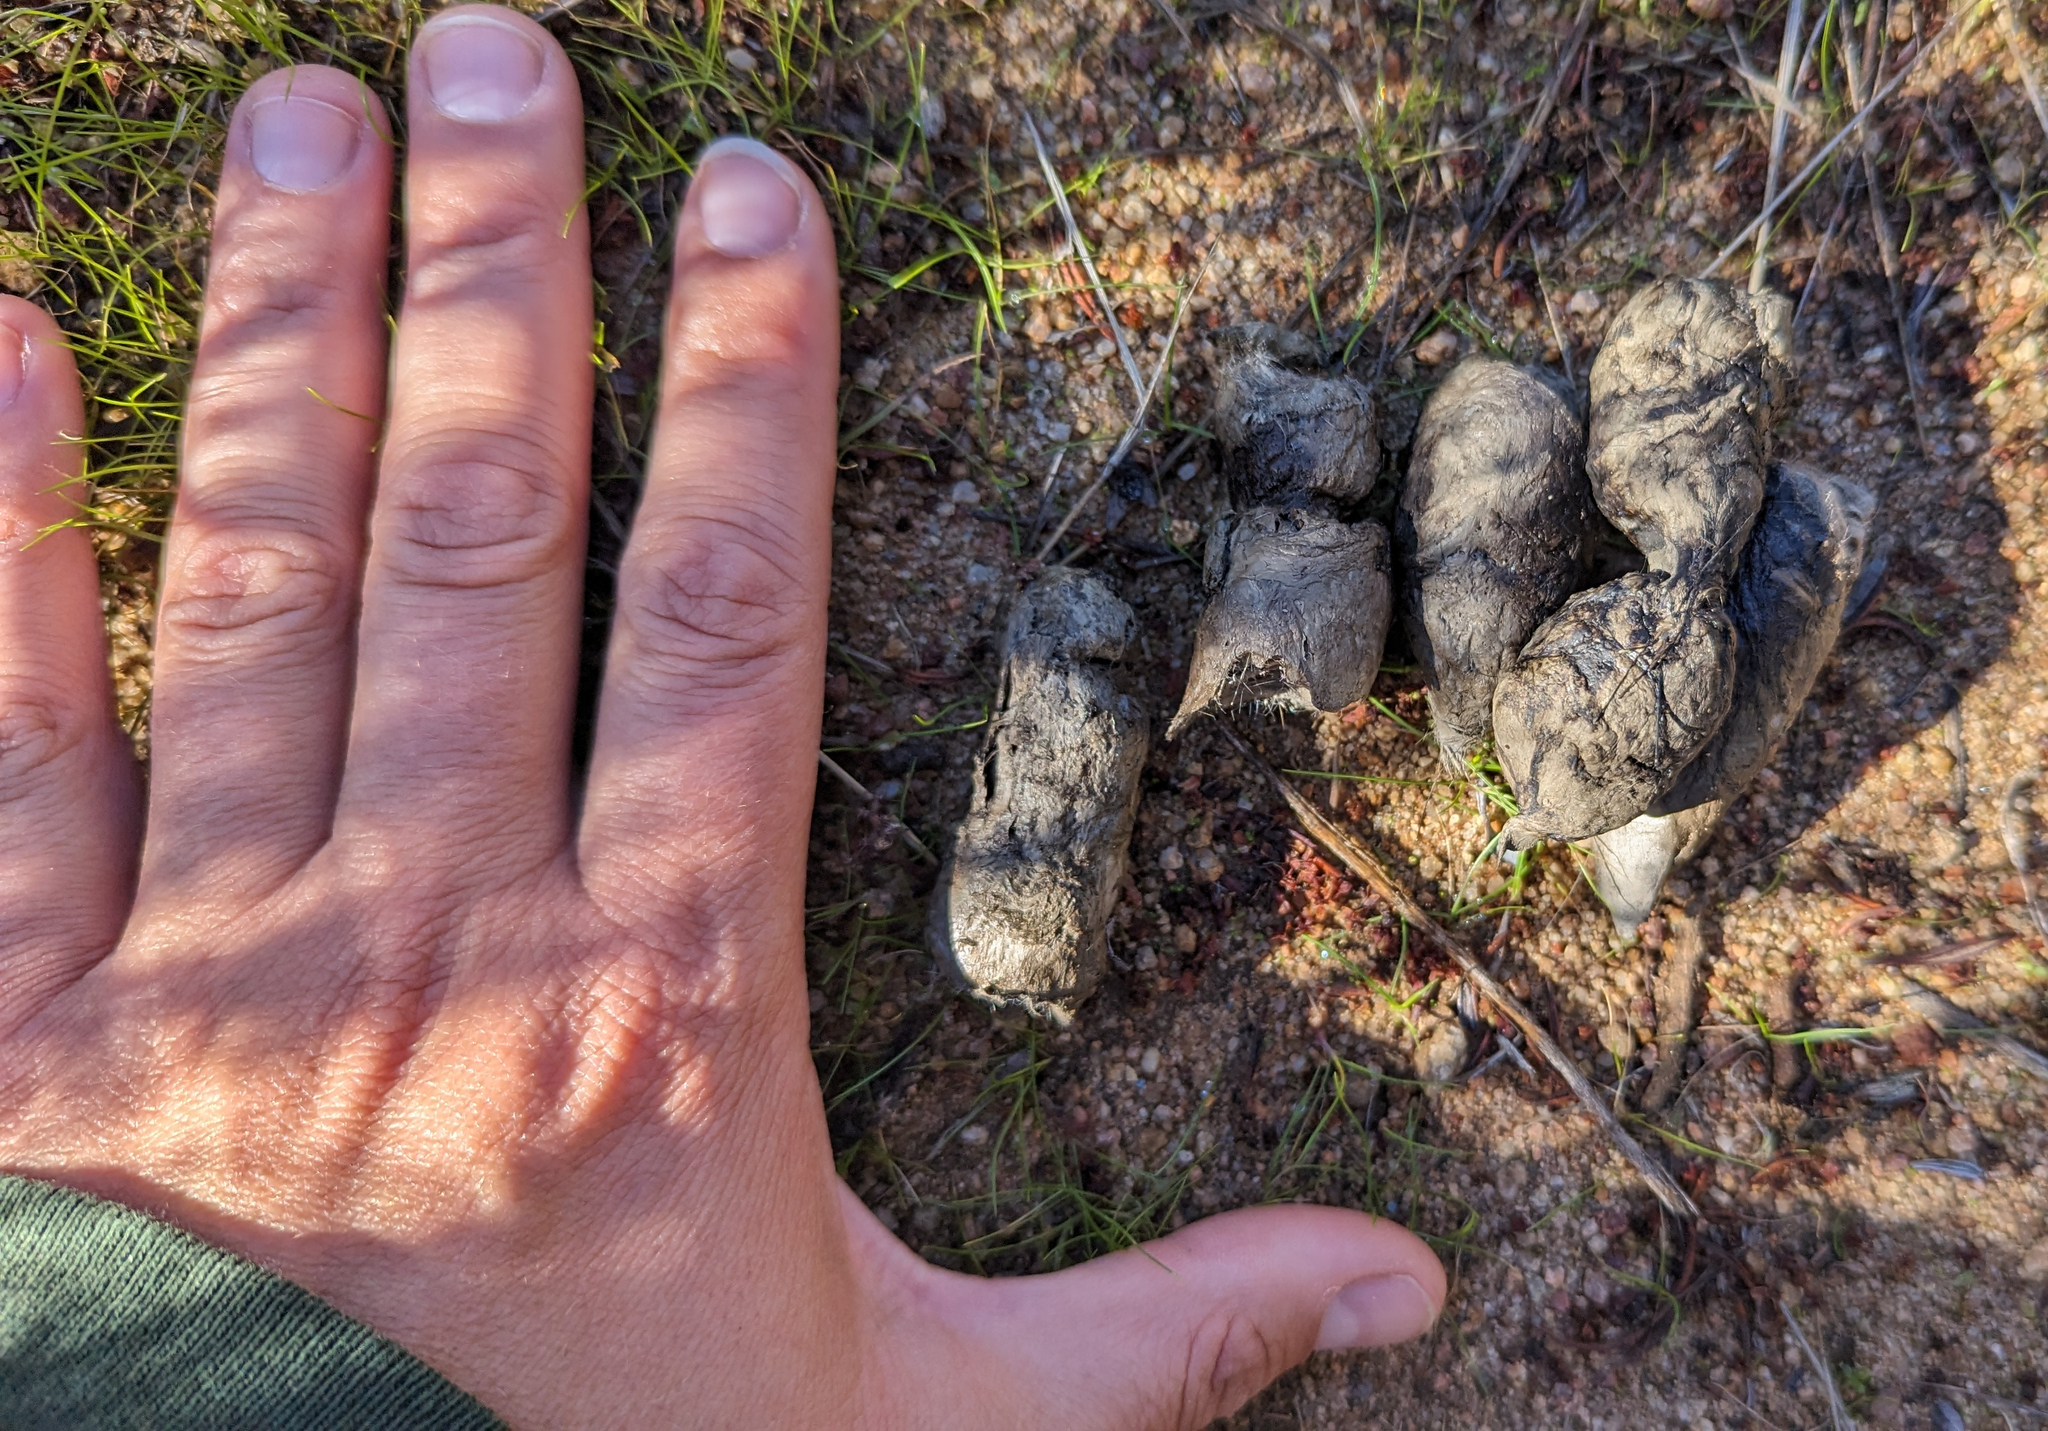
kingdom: Animalia
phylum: Chordata
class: Mammalia
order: Carnivora
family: Felidae
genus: Lynx
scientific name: Lynx rufus
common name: Bobcat
